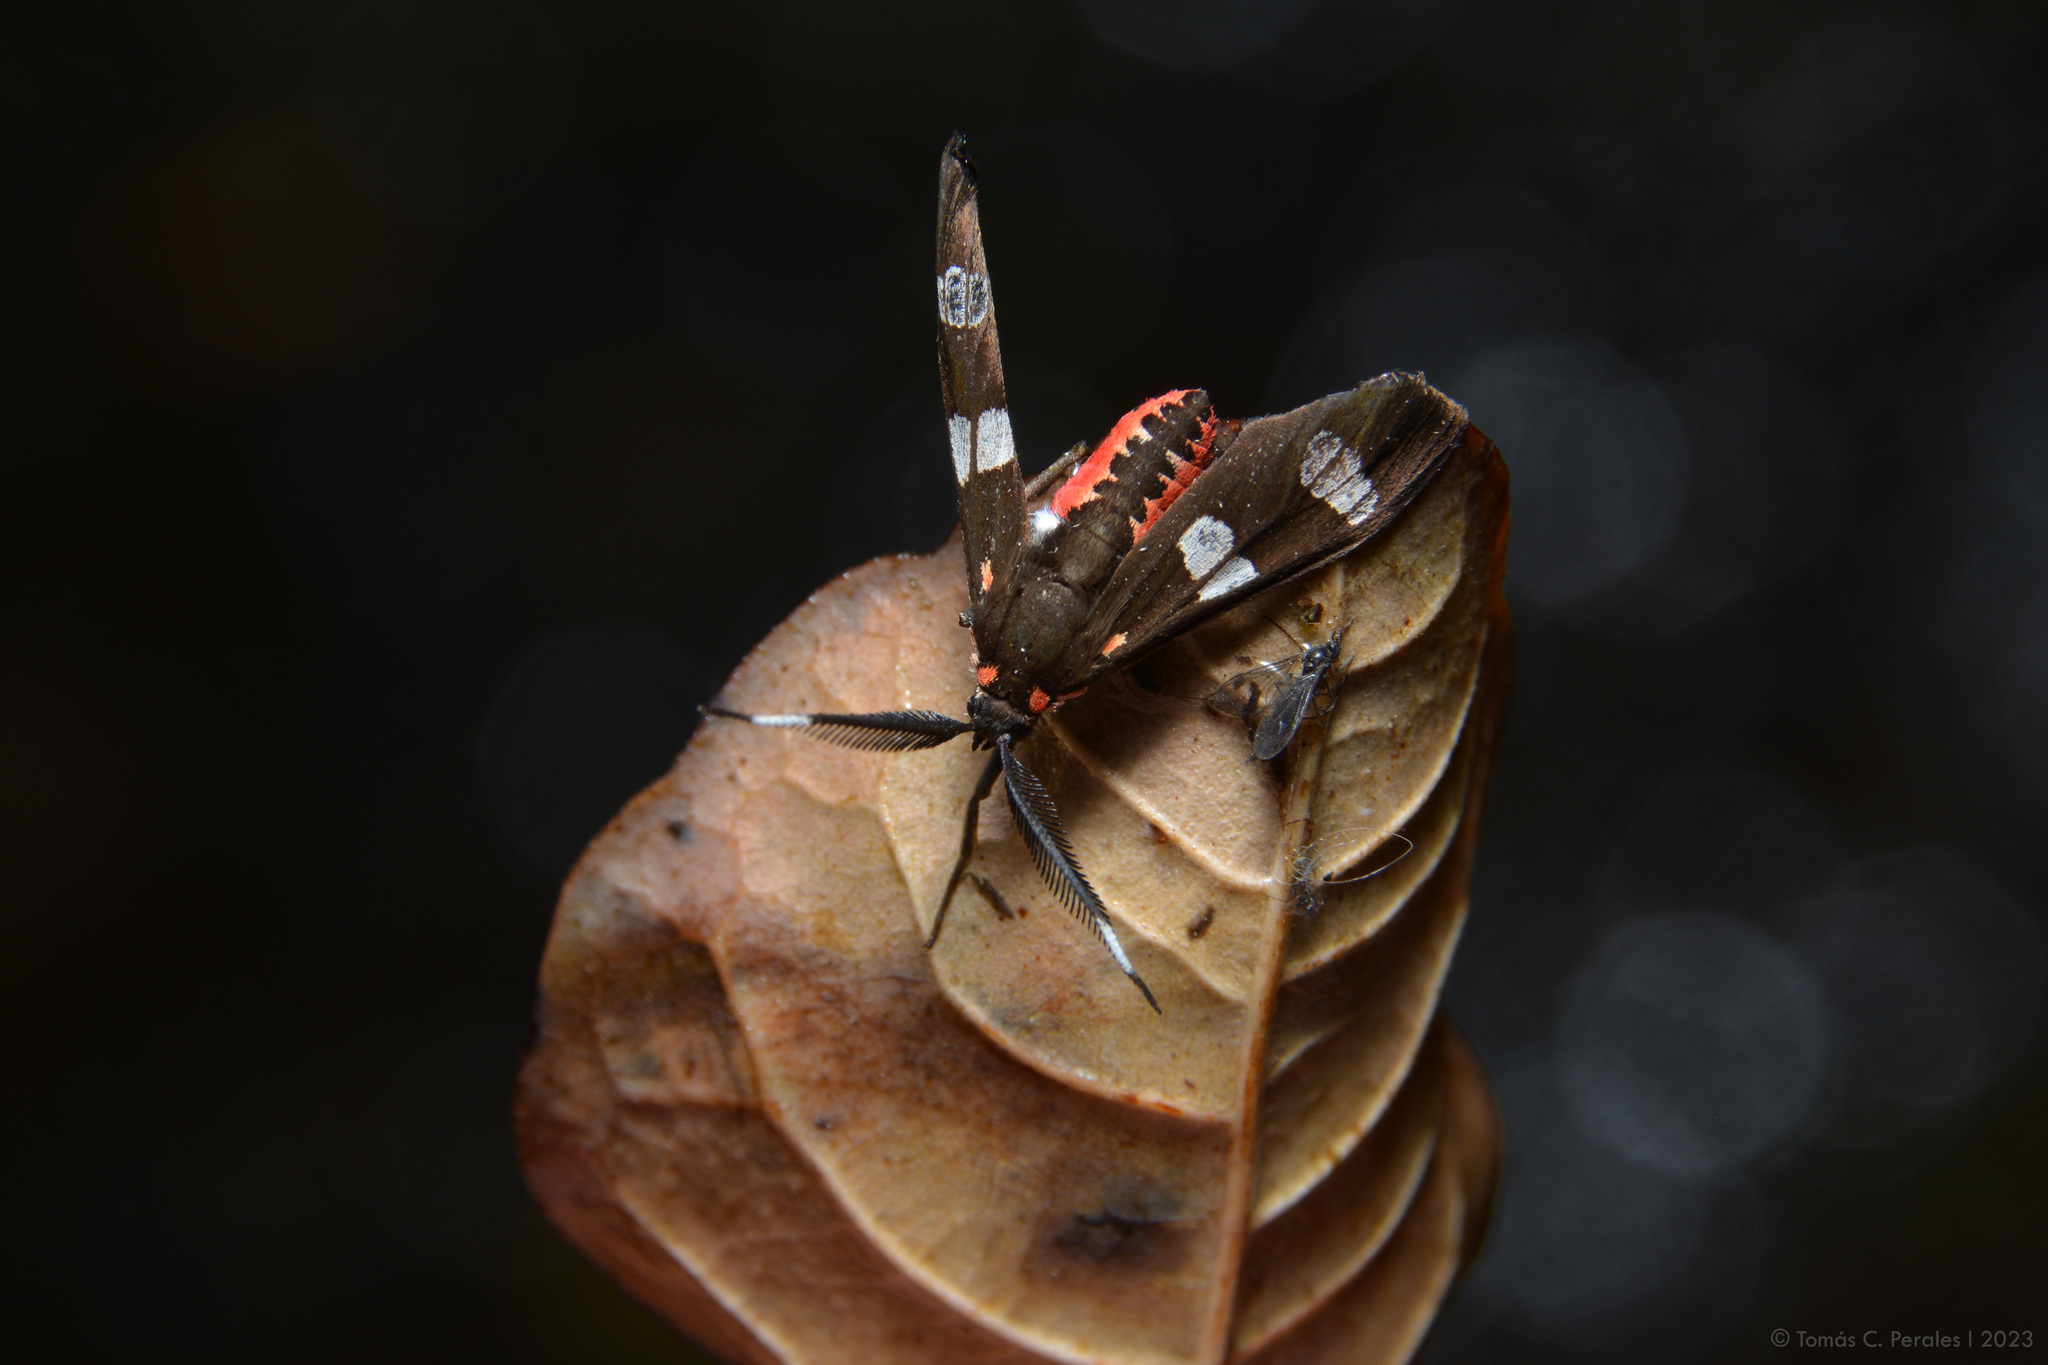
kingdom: Animalia
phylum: Arthropoda
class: Insecta
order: Lepidoptera
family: Erebidae
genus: Phoenicoprocta
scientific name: Phoenicoprocta teda
